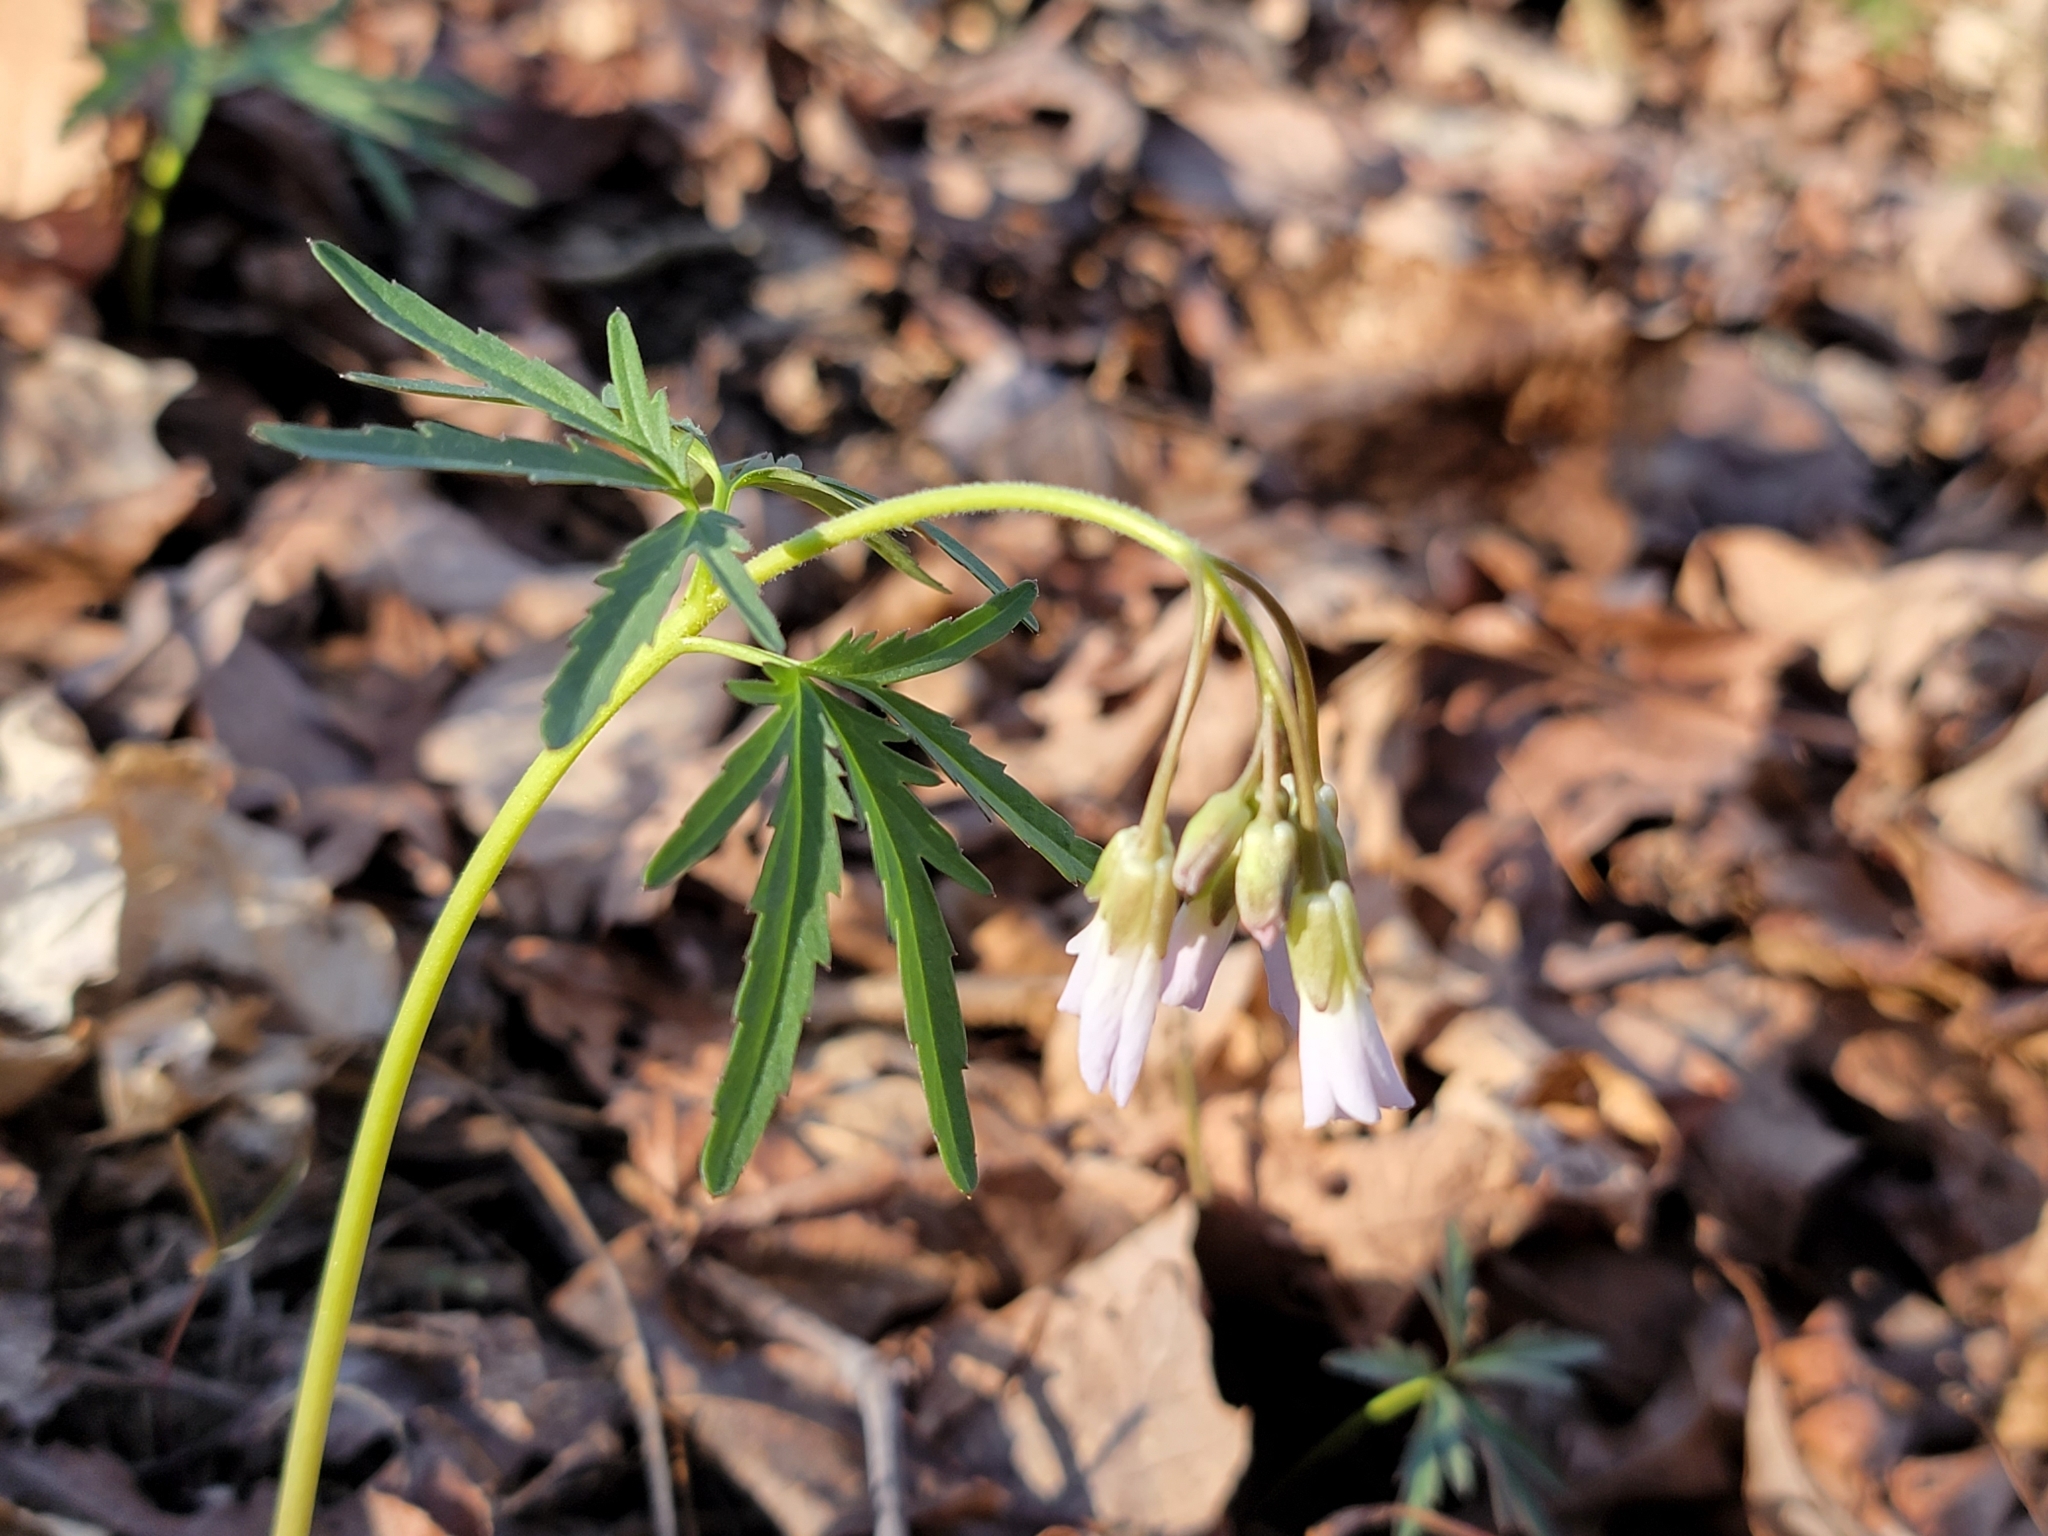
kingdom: Plantae
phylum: Tracheophyta
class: Magnoliopsida
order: Brassicales
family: Brassicaceae
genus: Cardamine
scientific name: Cardamine concatenata
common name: Cut-leaf toothcup
